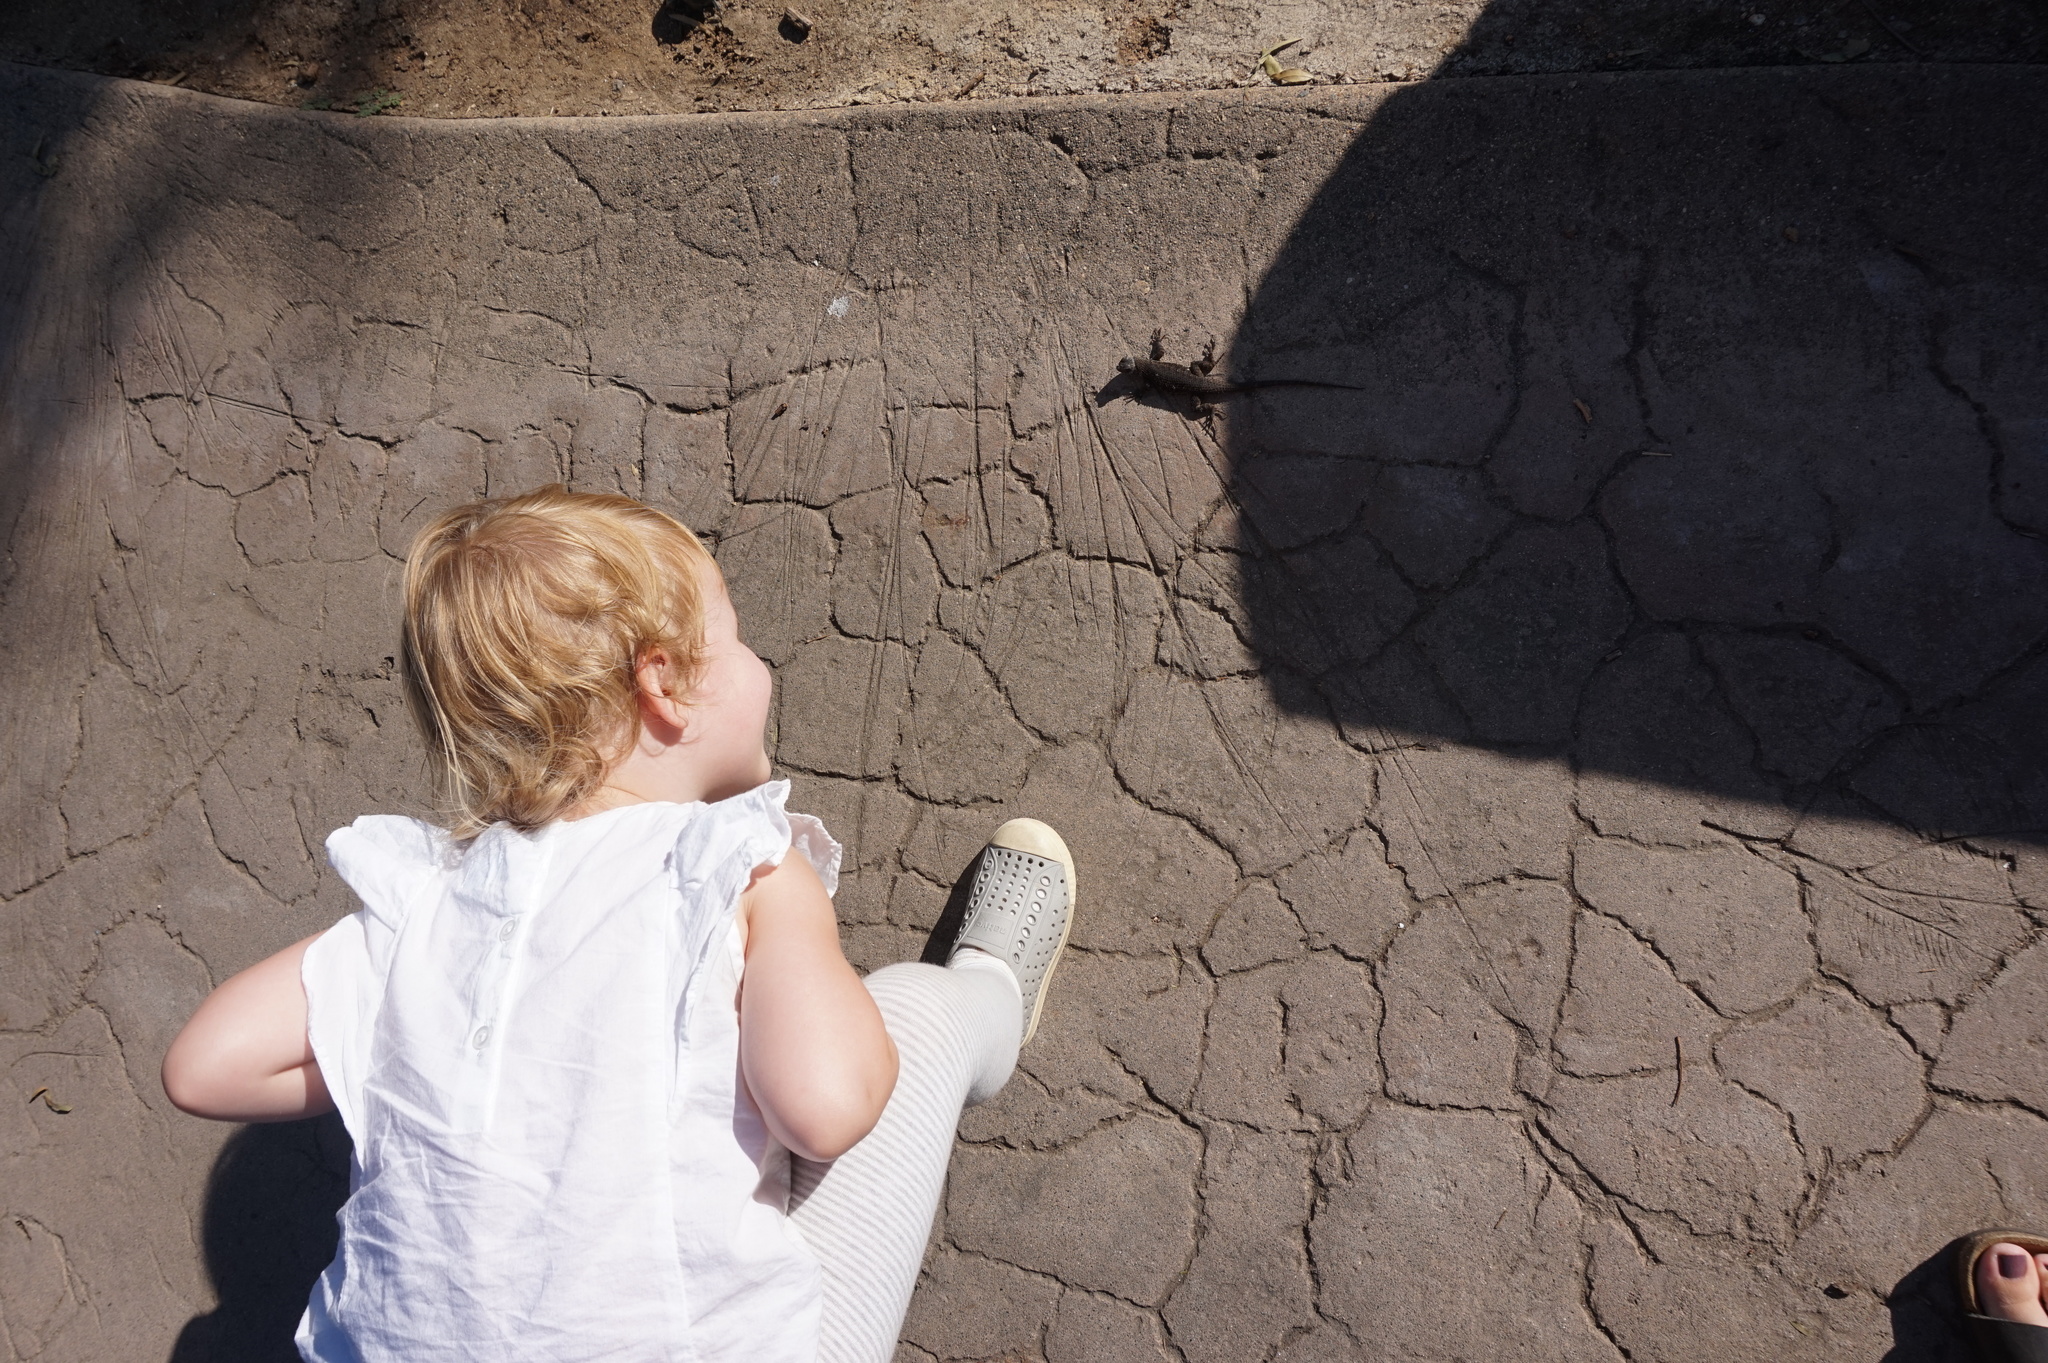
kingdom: Animalia
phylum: Chordata
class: Squamata
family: Phrynosomatidae
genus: Sceloporus
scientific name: Sceloporus occidentalis
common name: Western fence lizard
